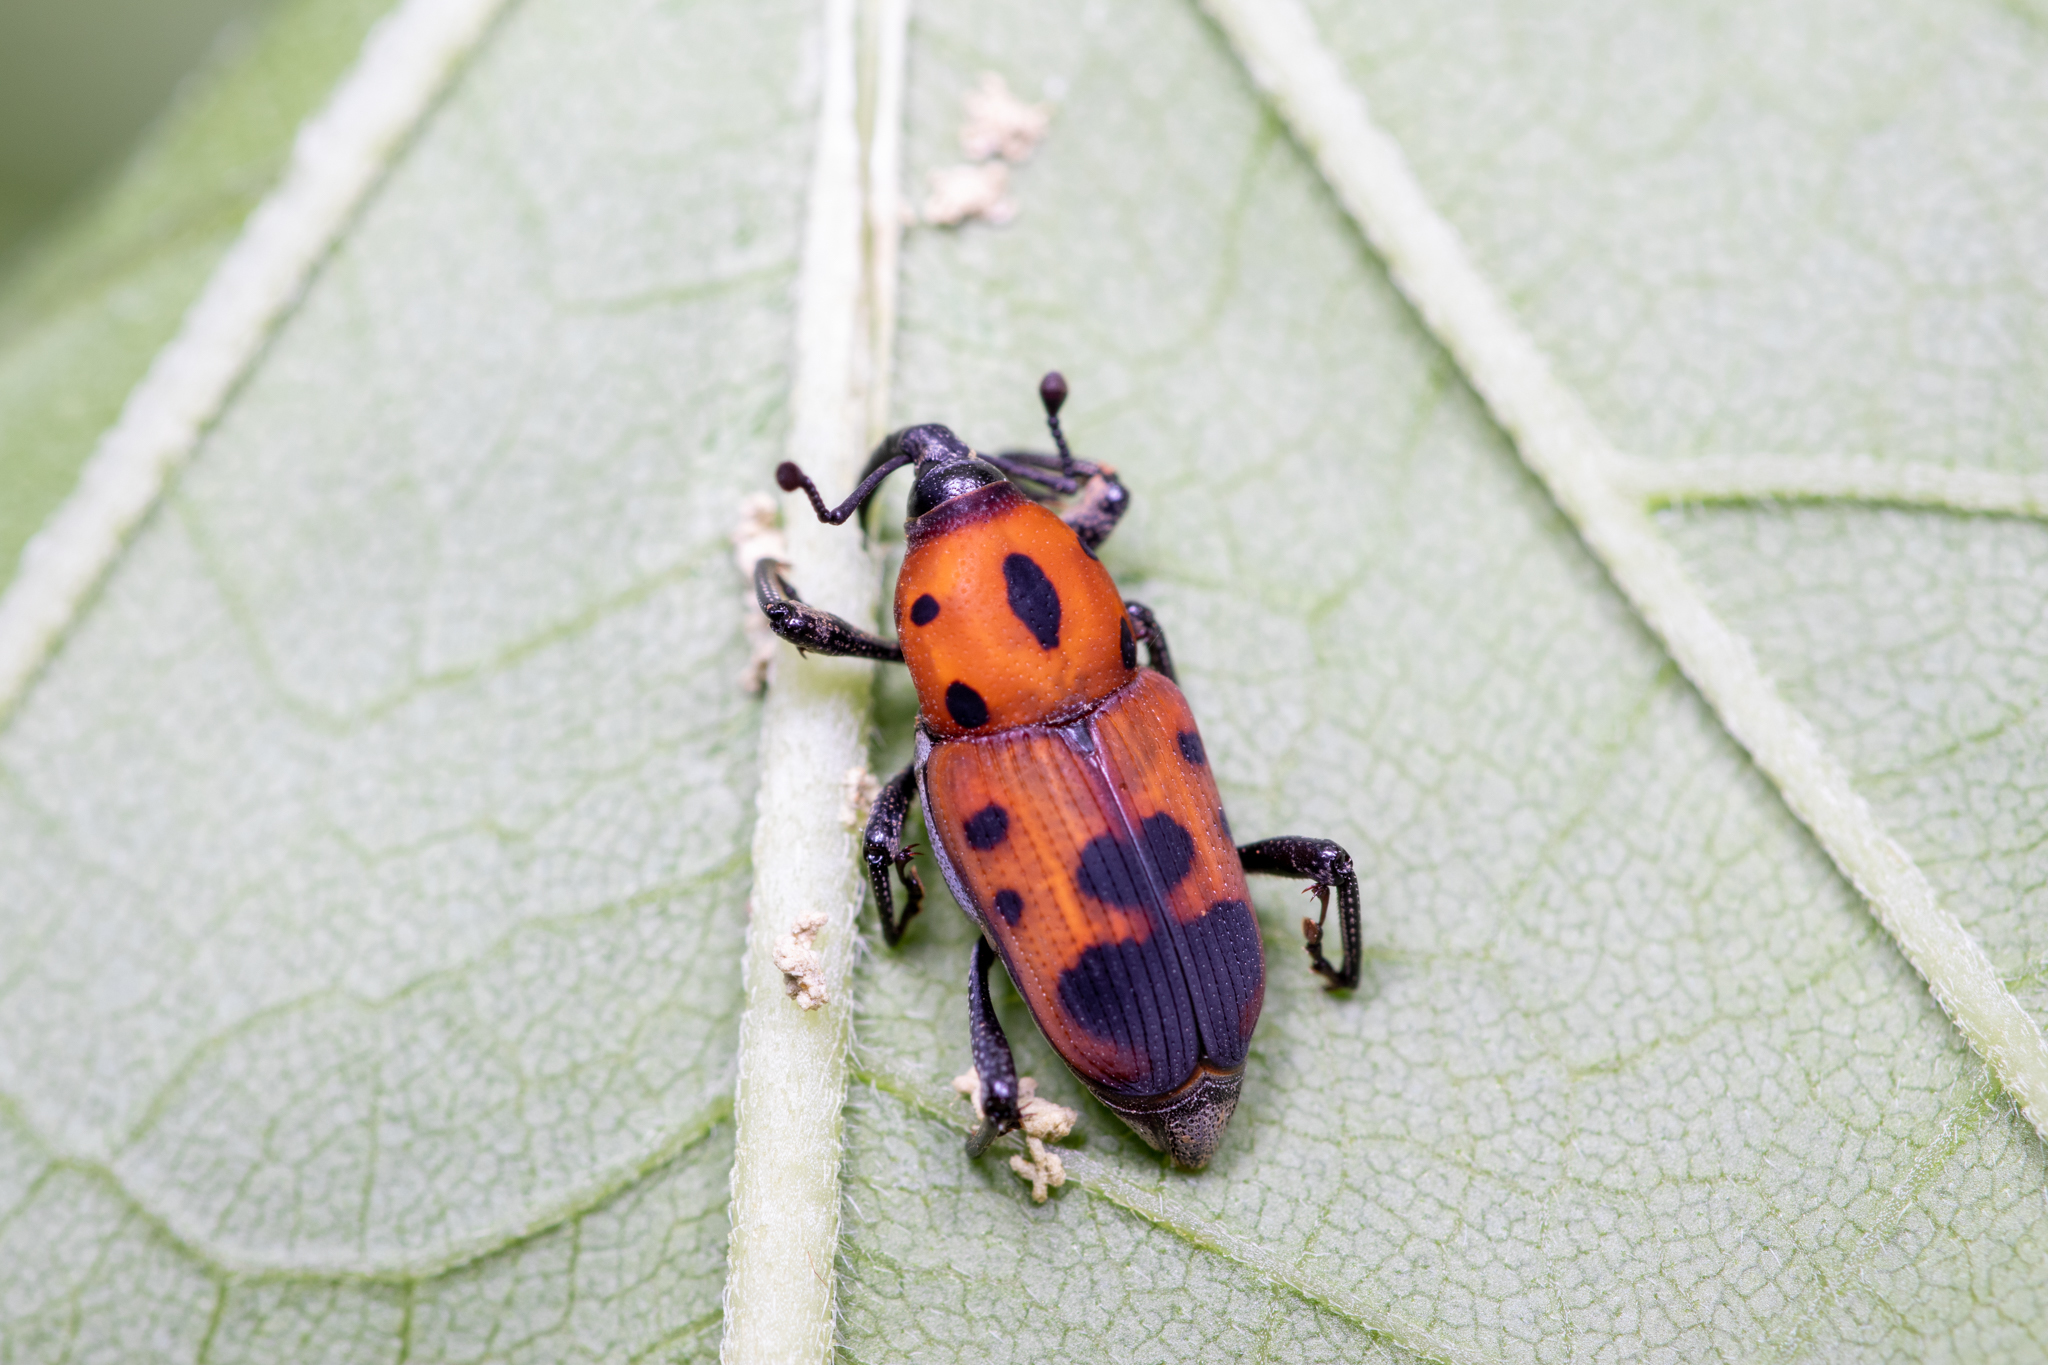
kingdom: Animalia
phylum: Arthropoda
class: Insecta
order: Coleoptera
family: Dryophthoridae
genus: Rhodobaenus
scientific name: Rhodobaenus quinquepunctatus
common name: Cocklebur weevil
